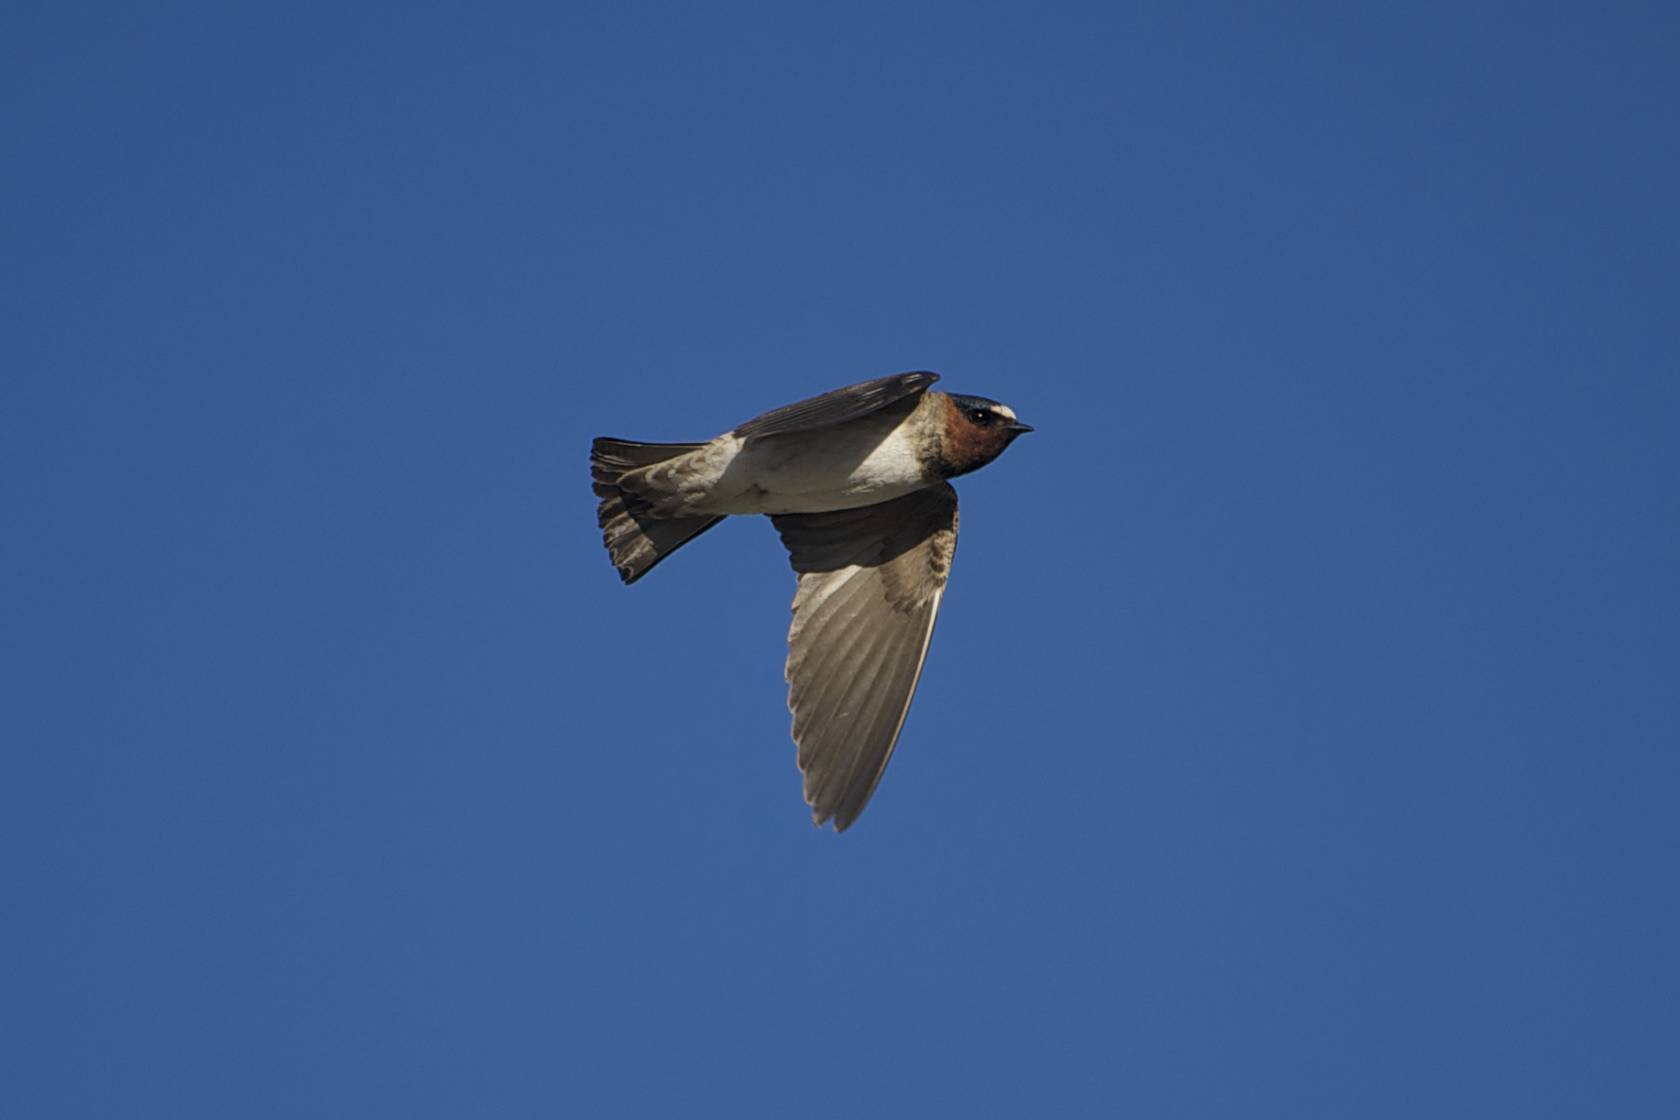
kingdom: Animalia
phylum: Chordata
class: Aves
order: Passeriformes
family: Hirundinidae
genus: Petrochelidon
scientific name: Petrochelidon pyrrhonota
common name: American cliff swallow
